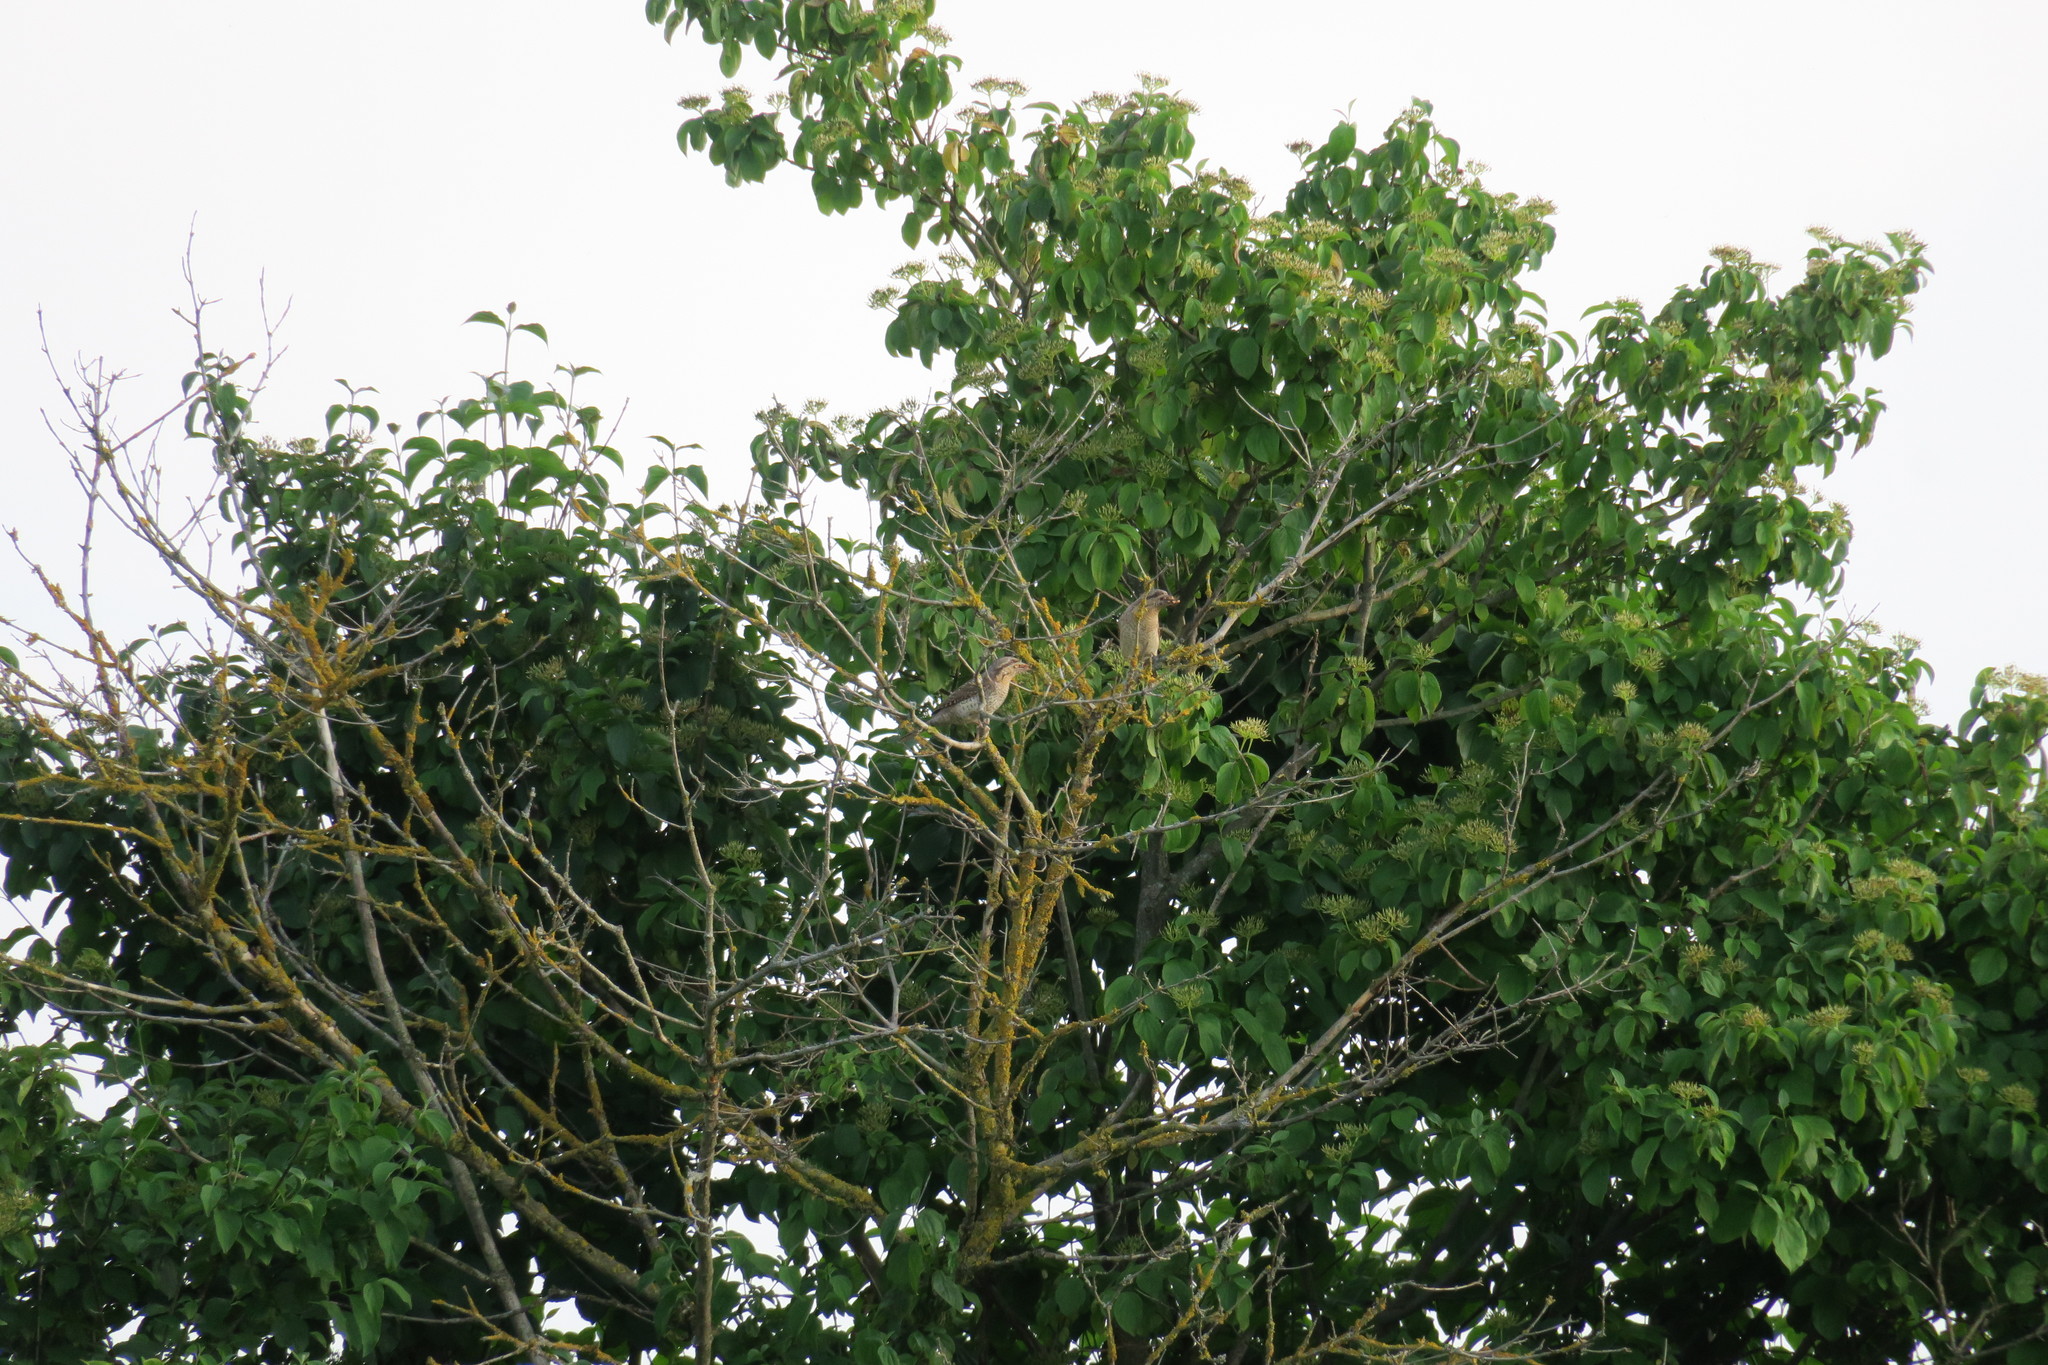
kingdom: Animalia
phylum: Chordata
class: Aves
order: Piciformes
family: Picidae
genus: Jynx
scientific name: Jynx torquilla
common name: Eurasian wryneck
